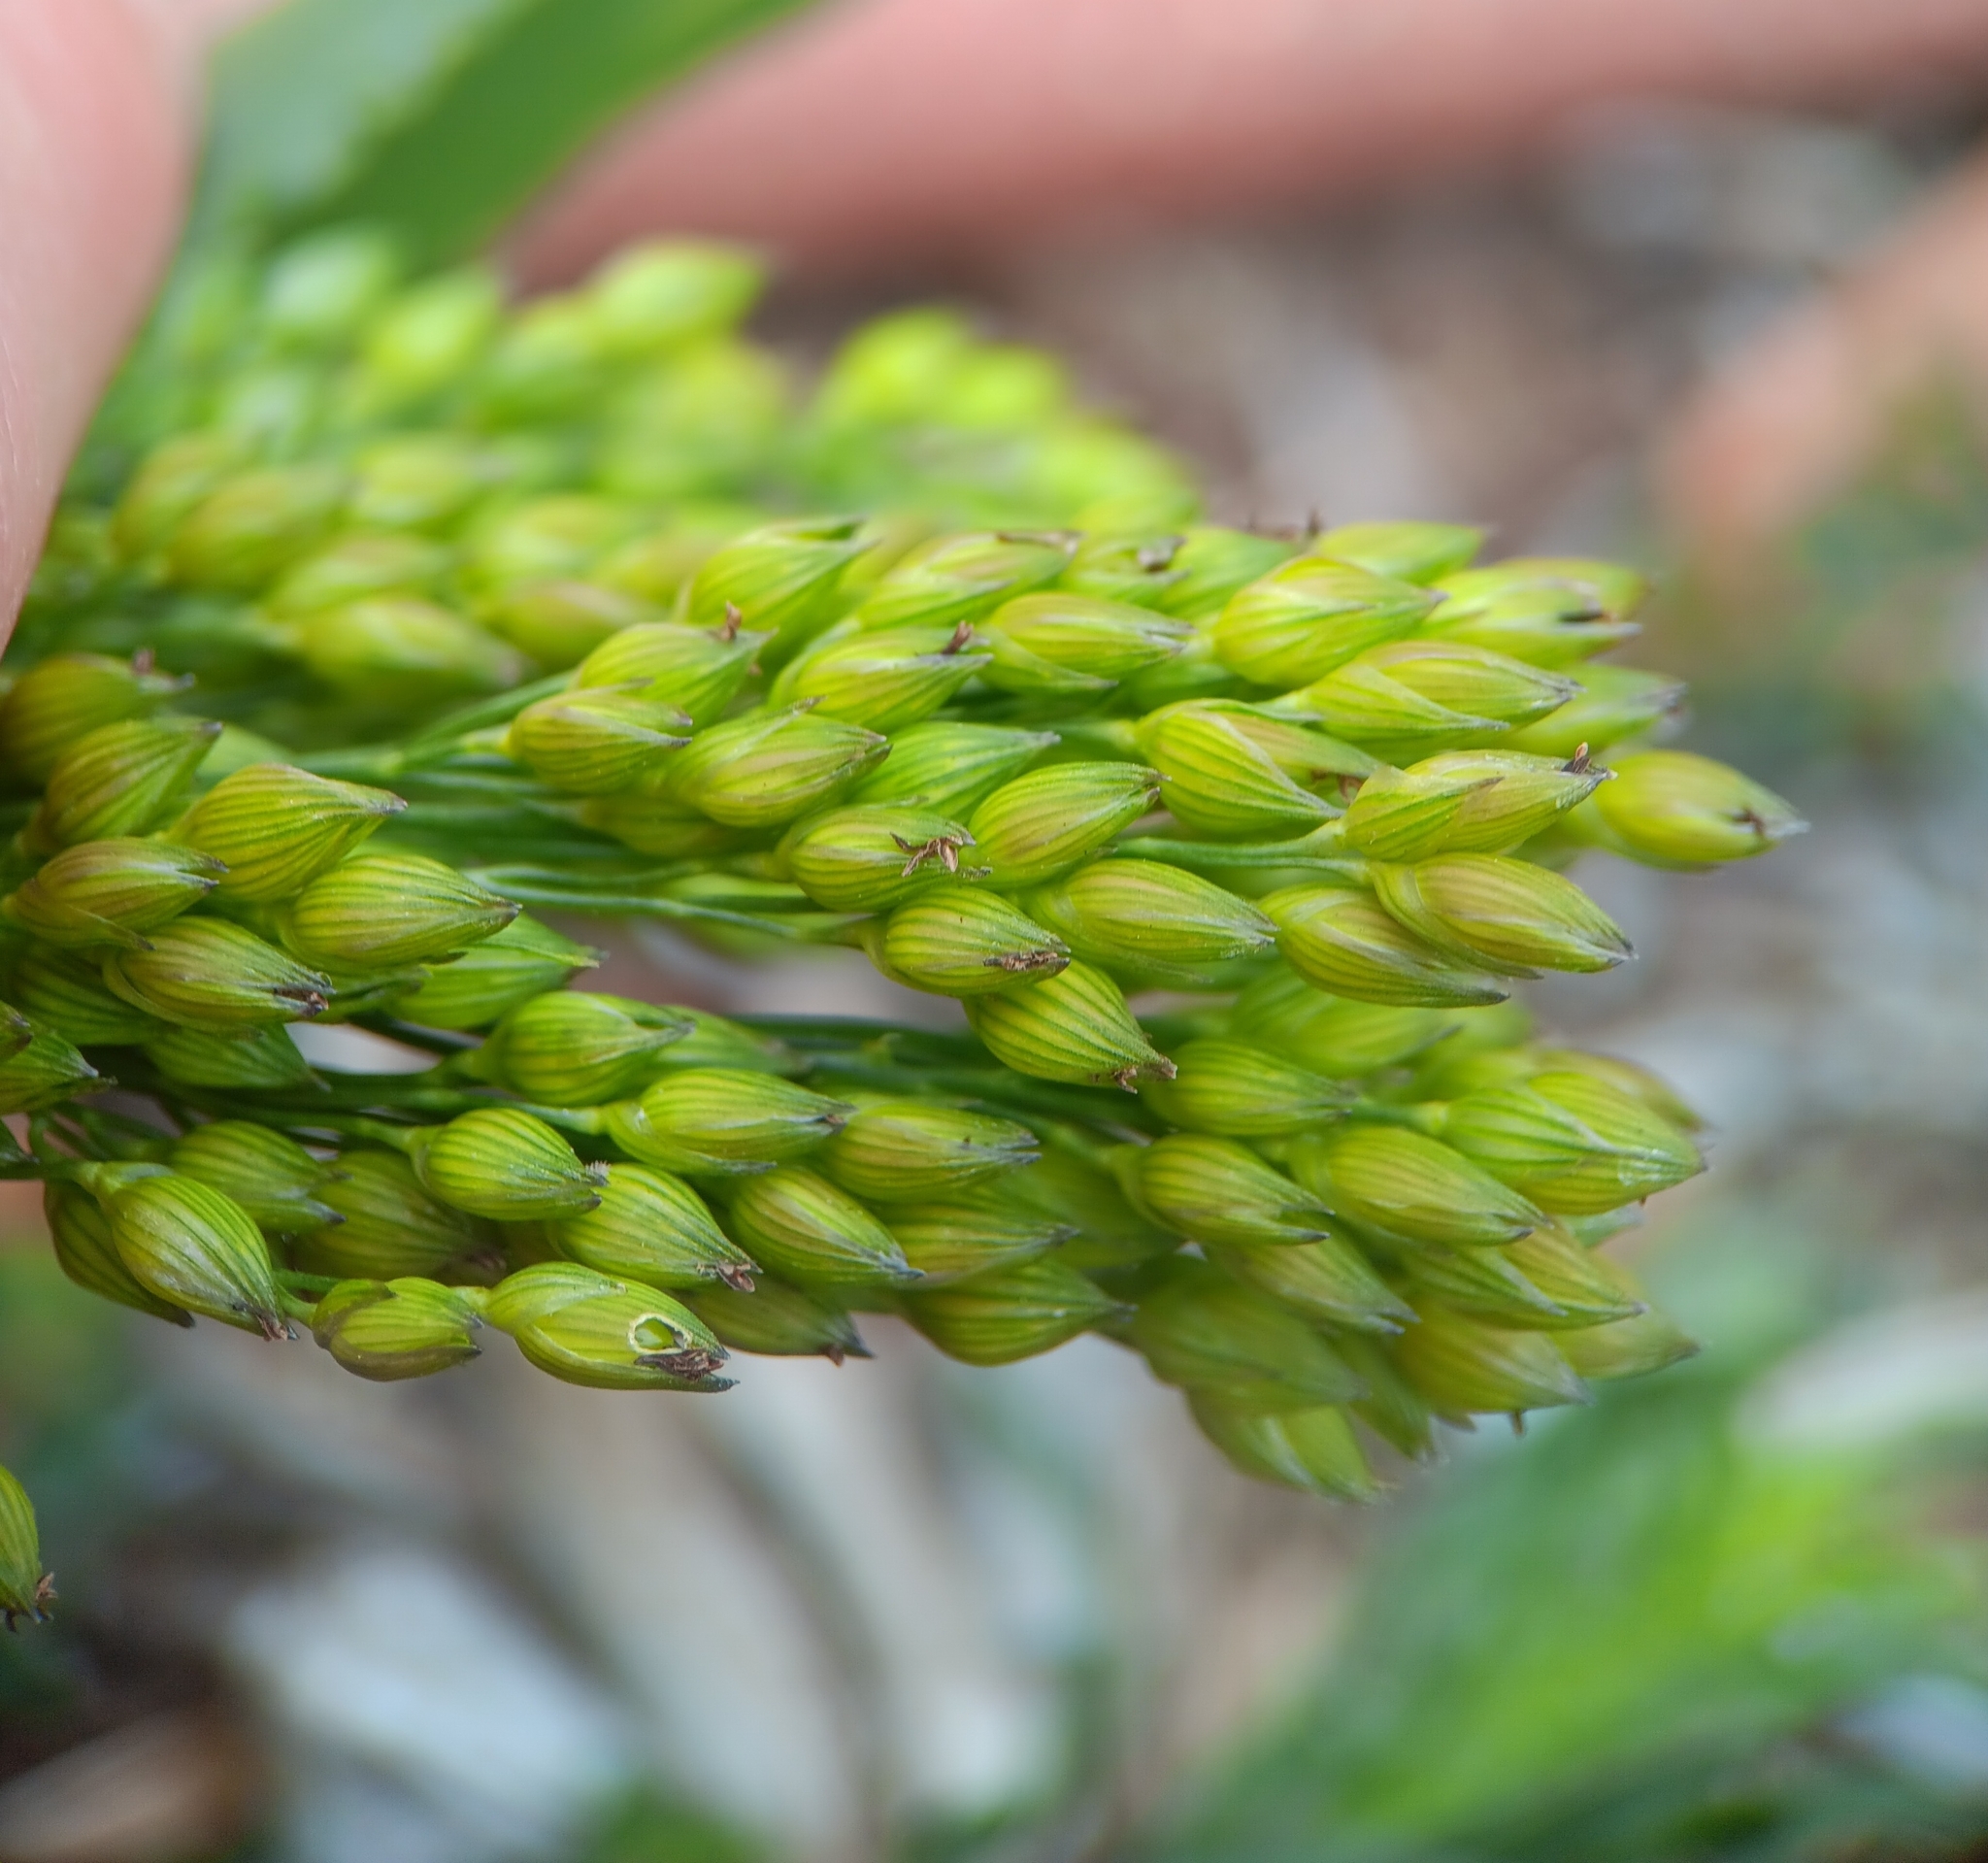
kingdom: Plantae
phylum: Tracheophyta
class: Liliopsida
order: Poales
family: Poaceae
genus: Panicum
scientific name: Panicum miliaceum
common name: Common millet
